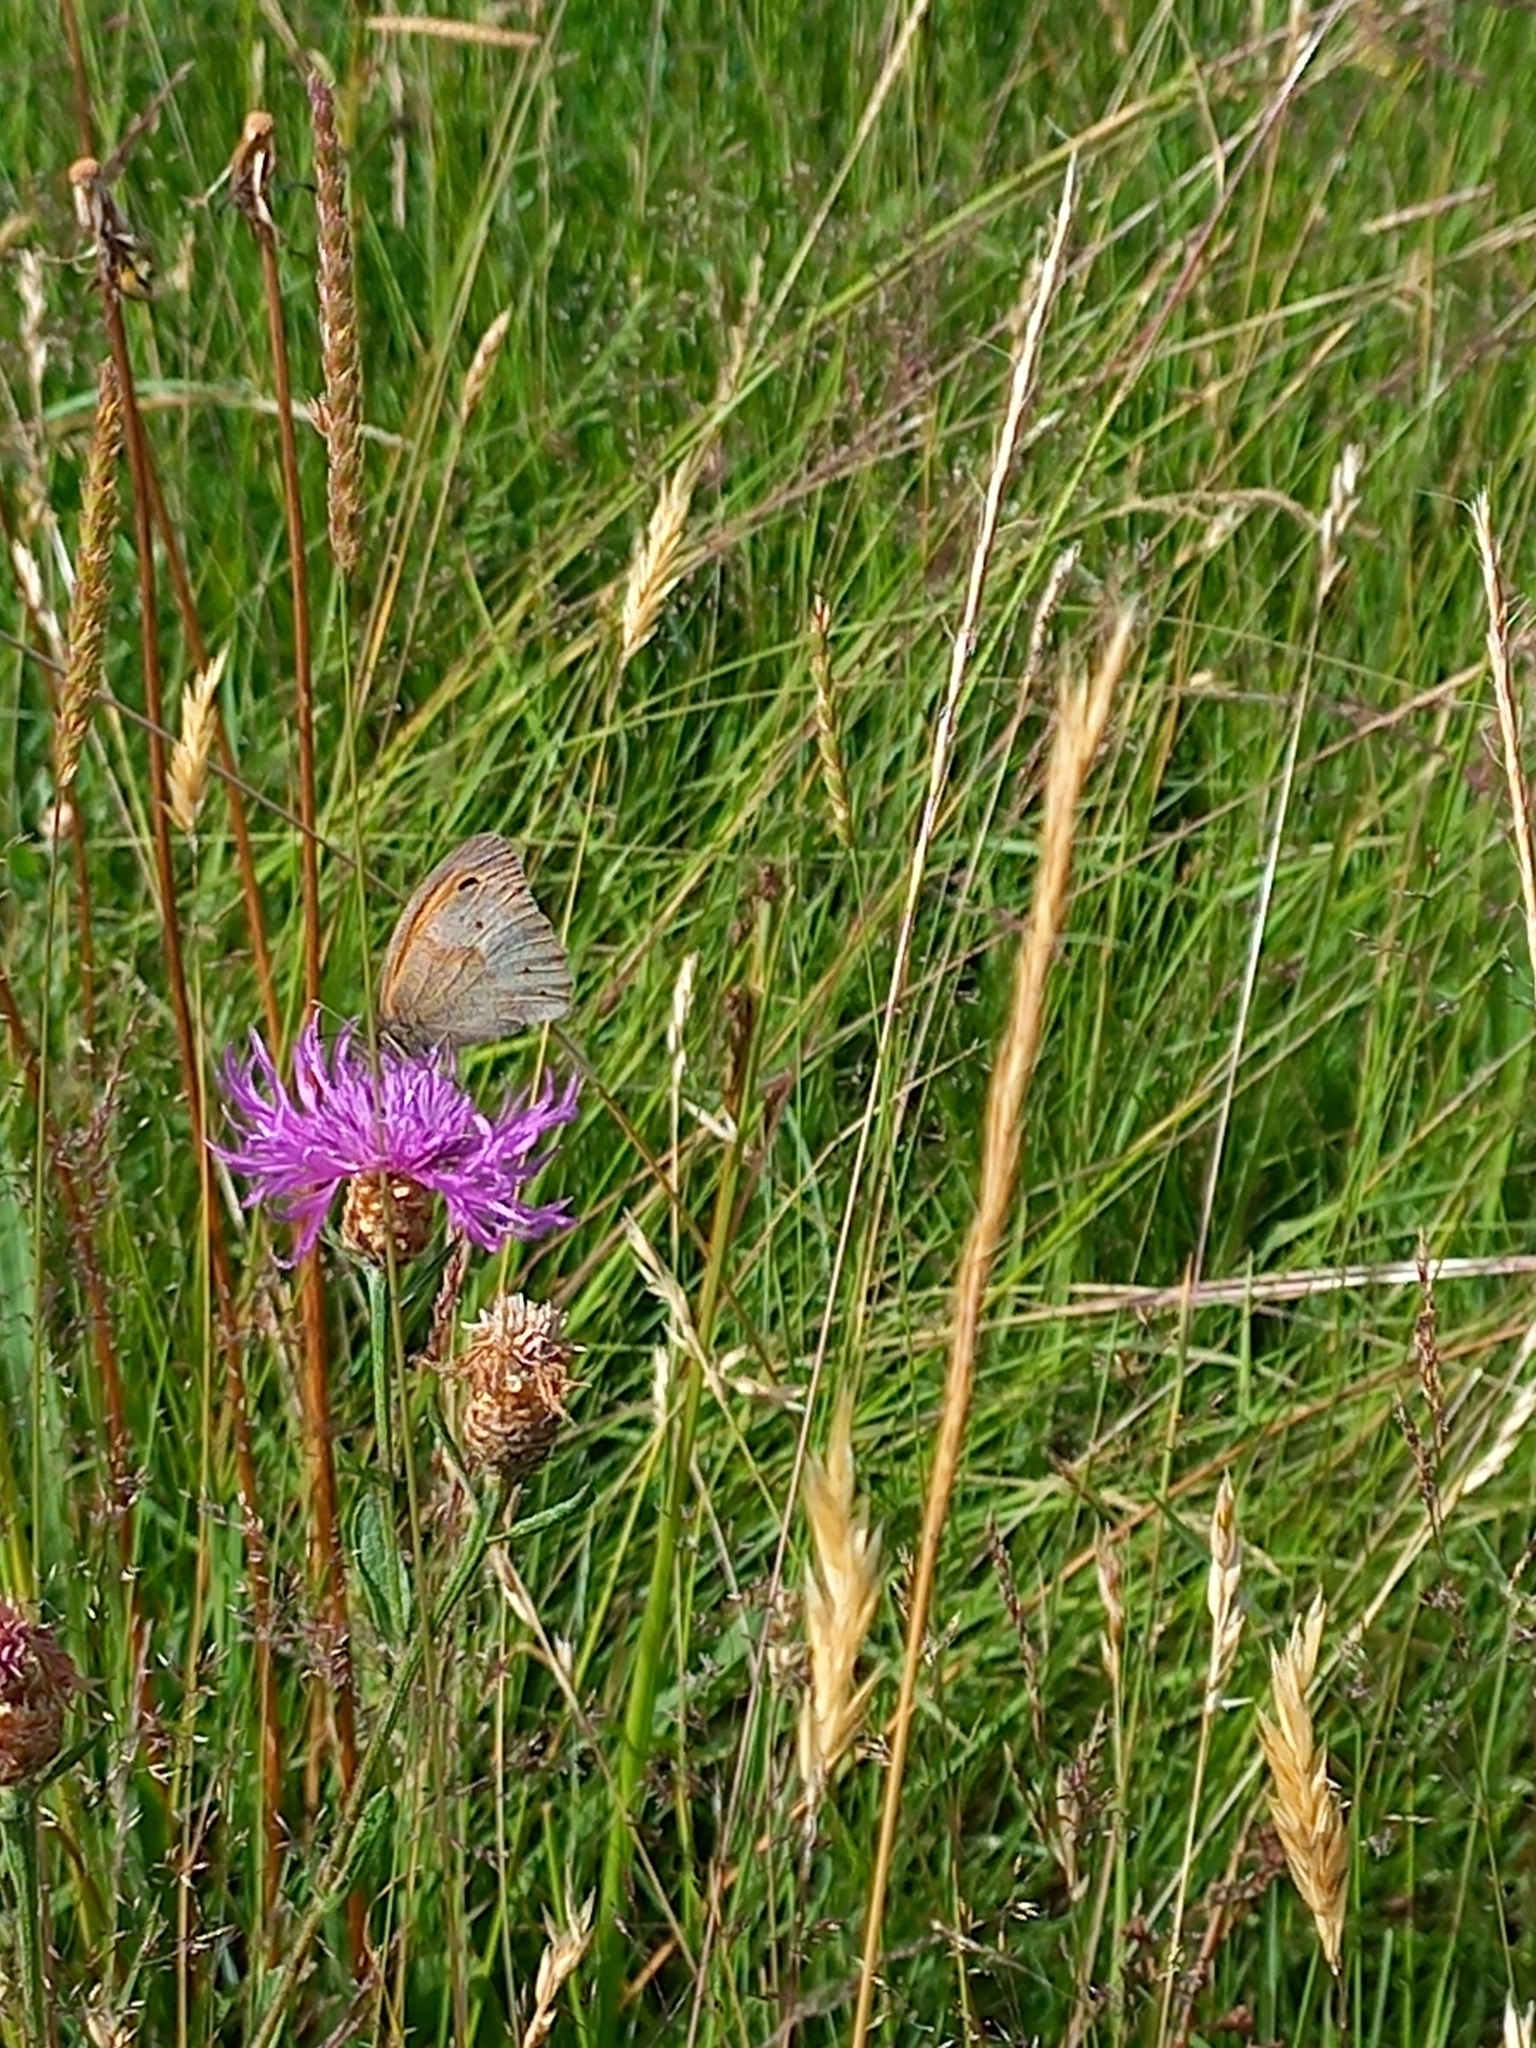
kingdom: Animalia
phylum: Arthropoda
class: Insecta
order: Lepidoptera
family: Nymphalidae
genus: Maniola
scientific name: Maniola jurtina
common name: Meadow brown
